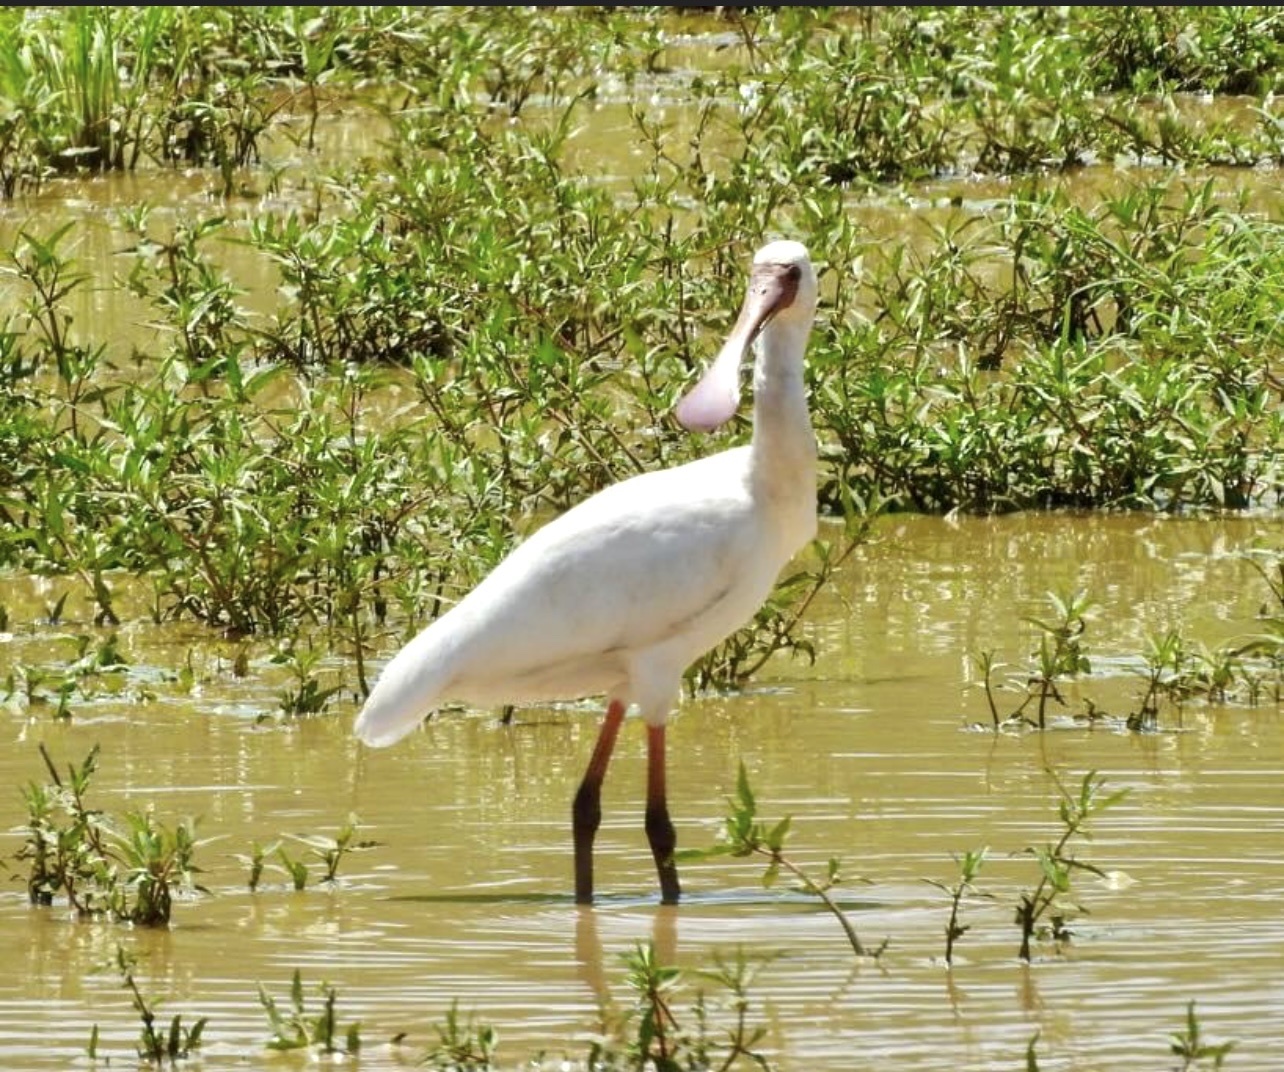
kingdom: Animalia
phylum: Chordata
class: Aves
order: Pelecaniformes
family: Threskiornithidae
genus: Platalea
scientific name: Platalea alba
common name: African spoonbill
